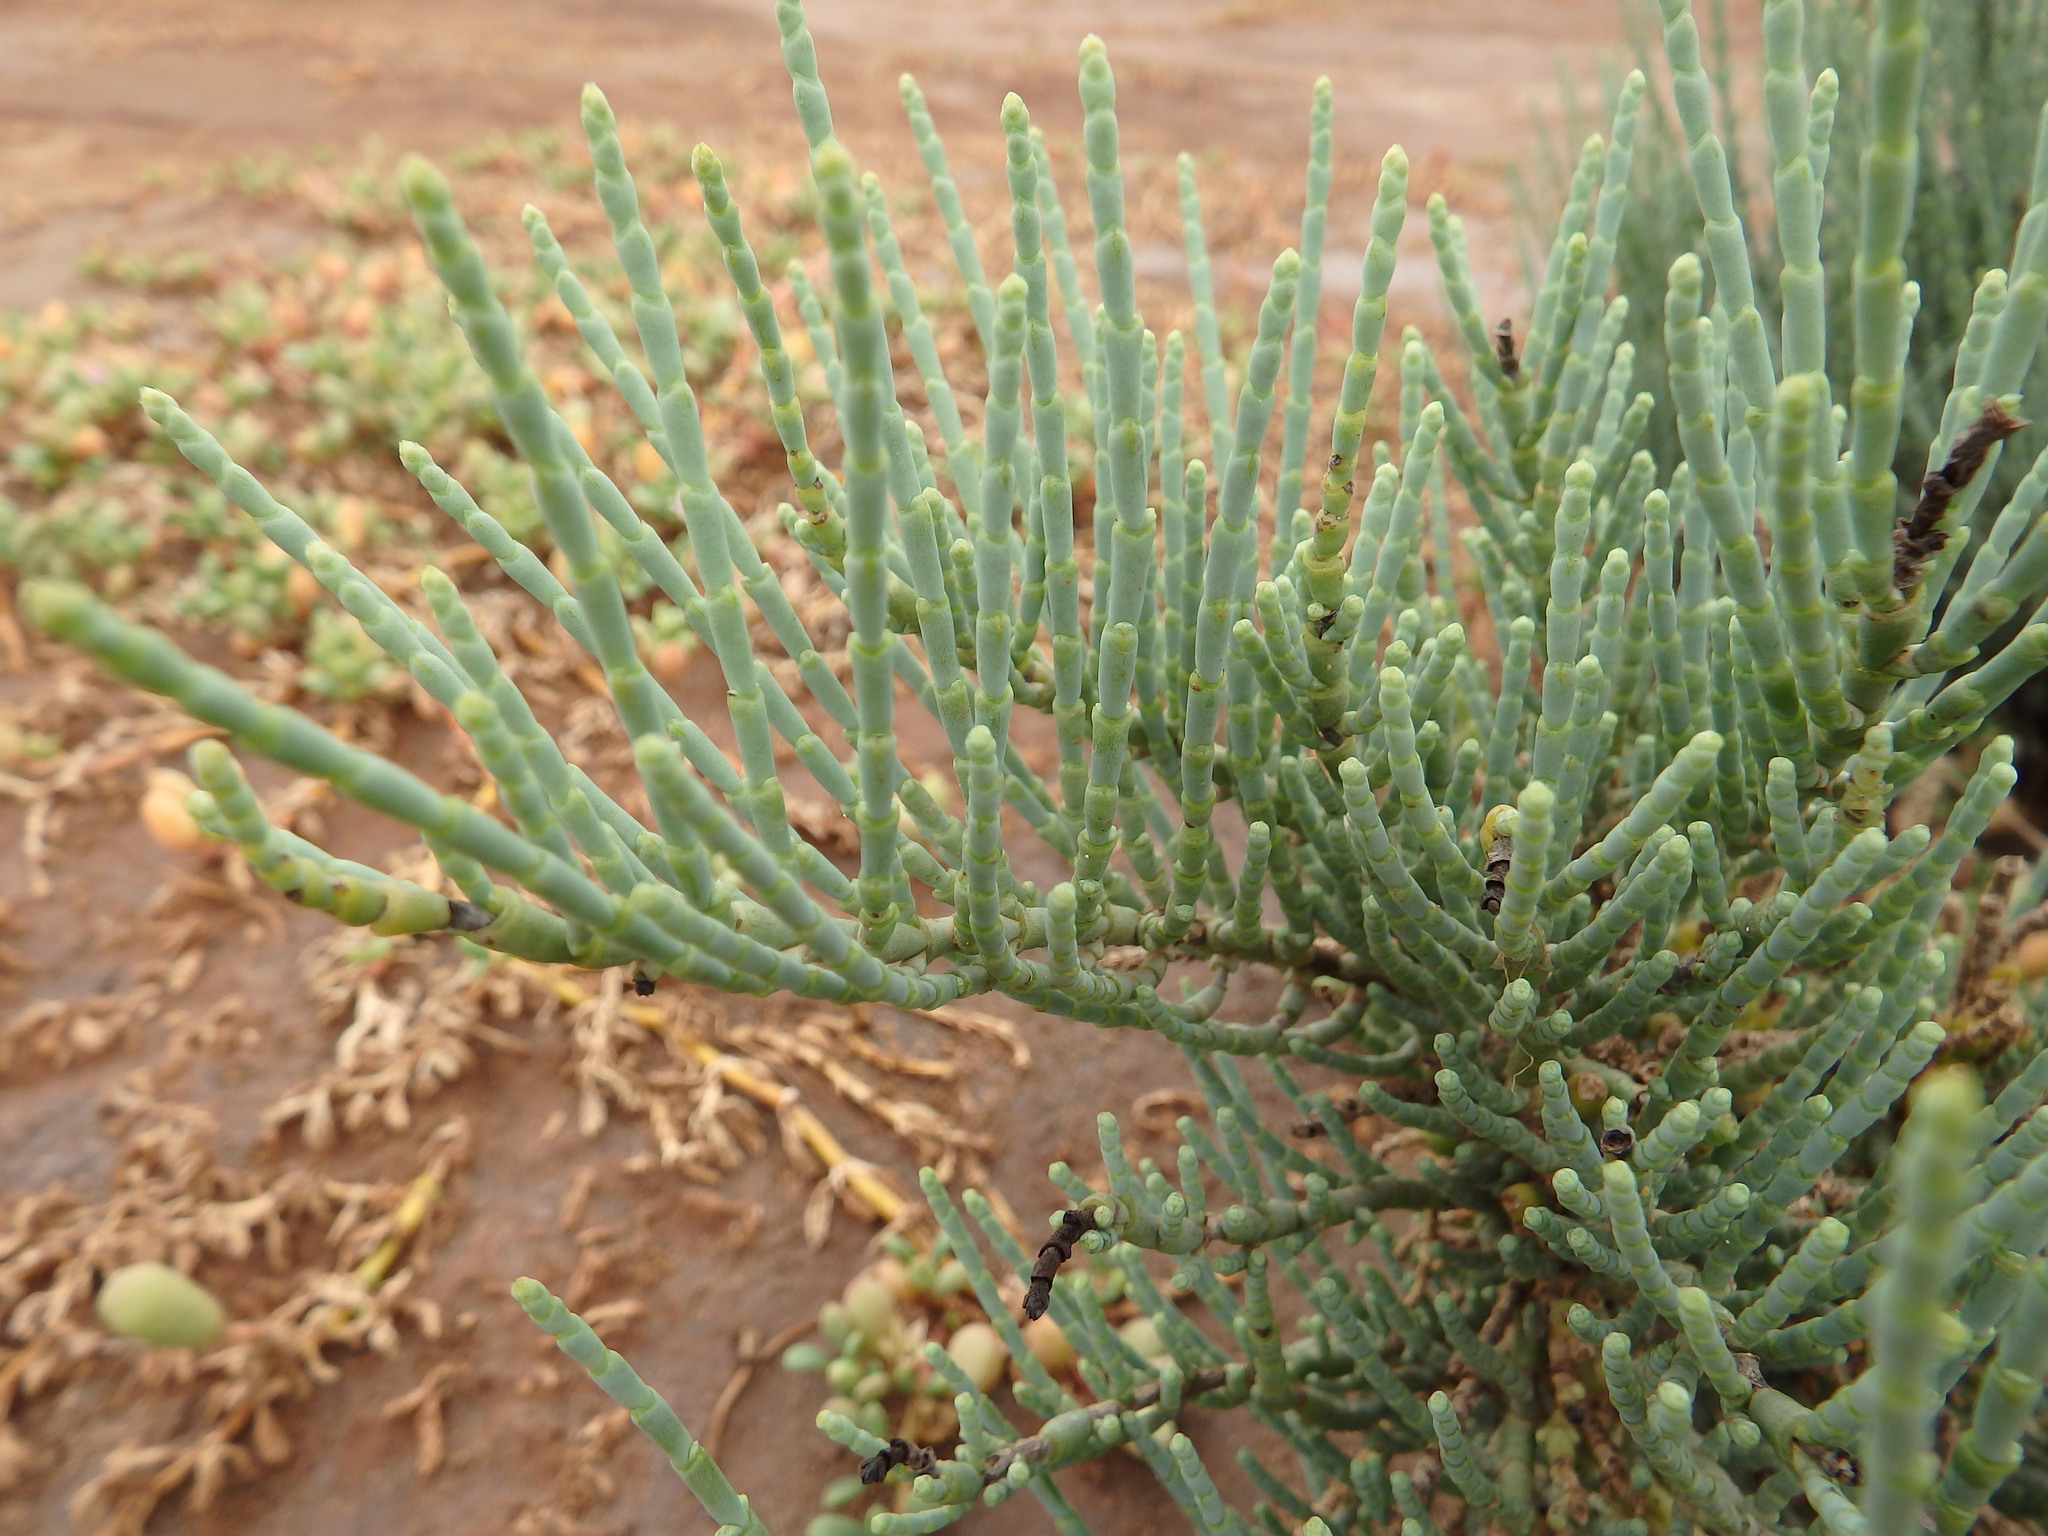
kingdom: Plantae
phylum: Tracheophyta
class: Magnoliopsida
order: Caryophyllales
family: Amaranthaceae
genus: Arthrocaulon
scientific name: Arthrocaulon macrostachyum
